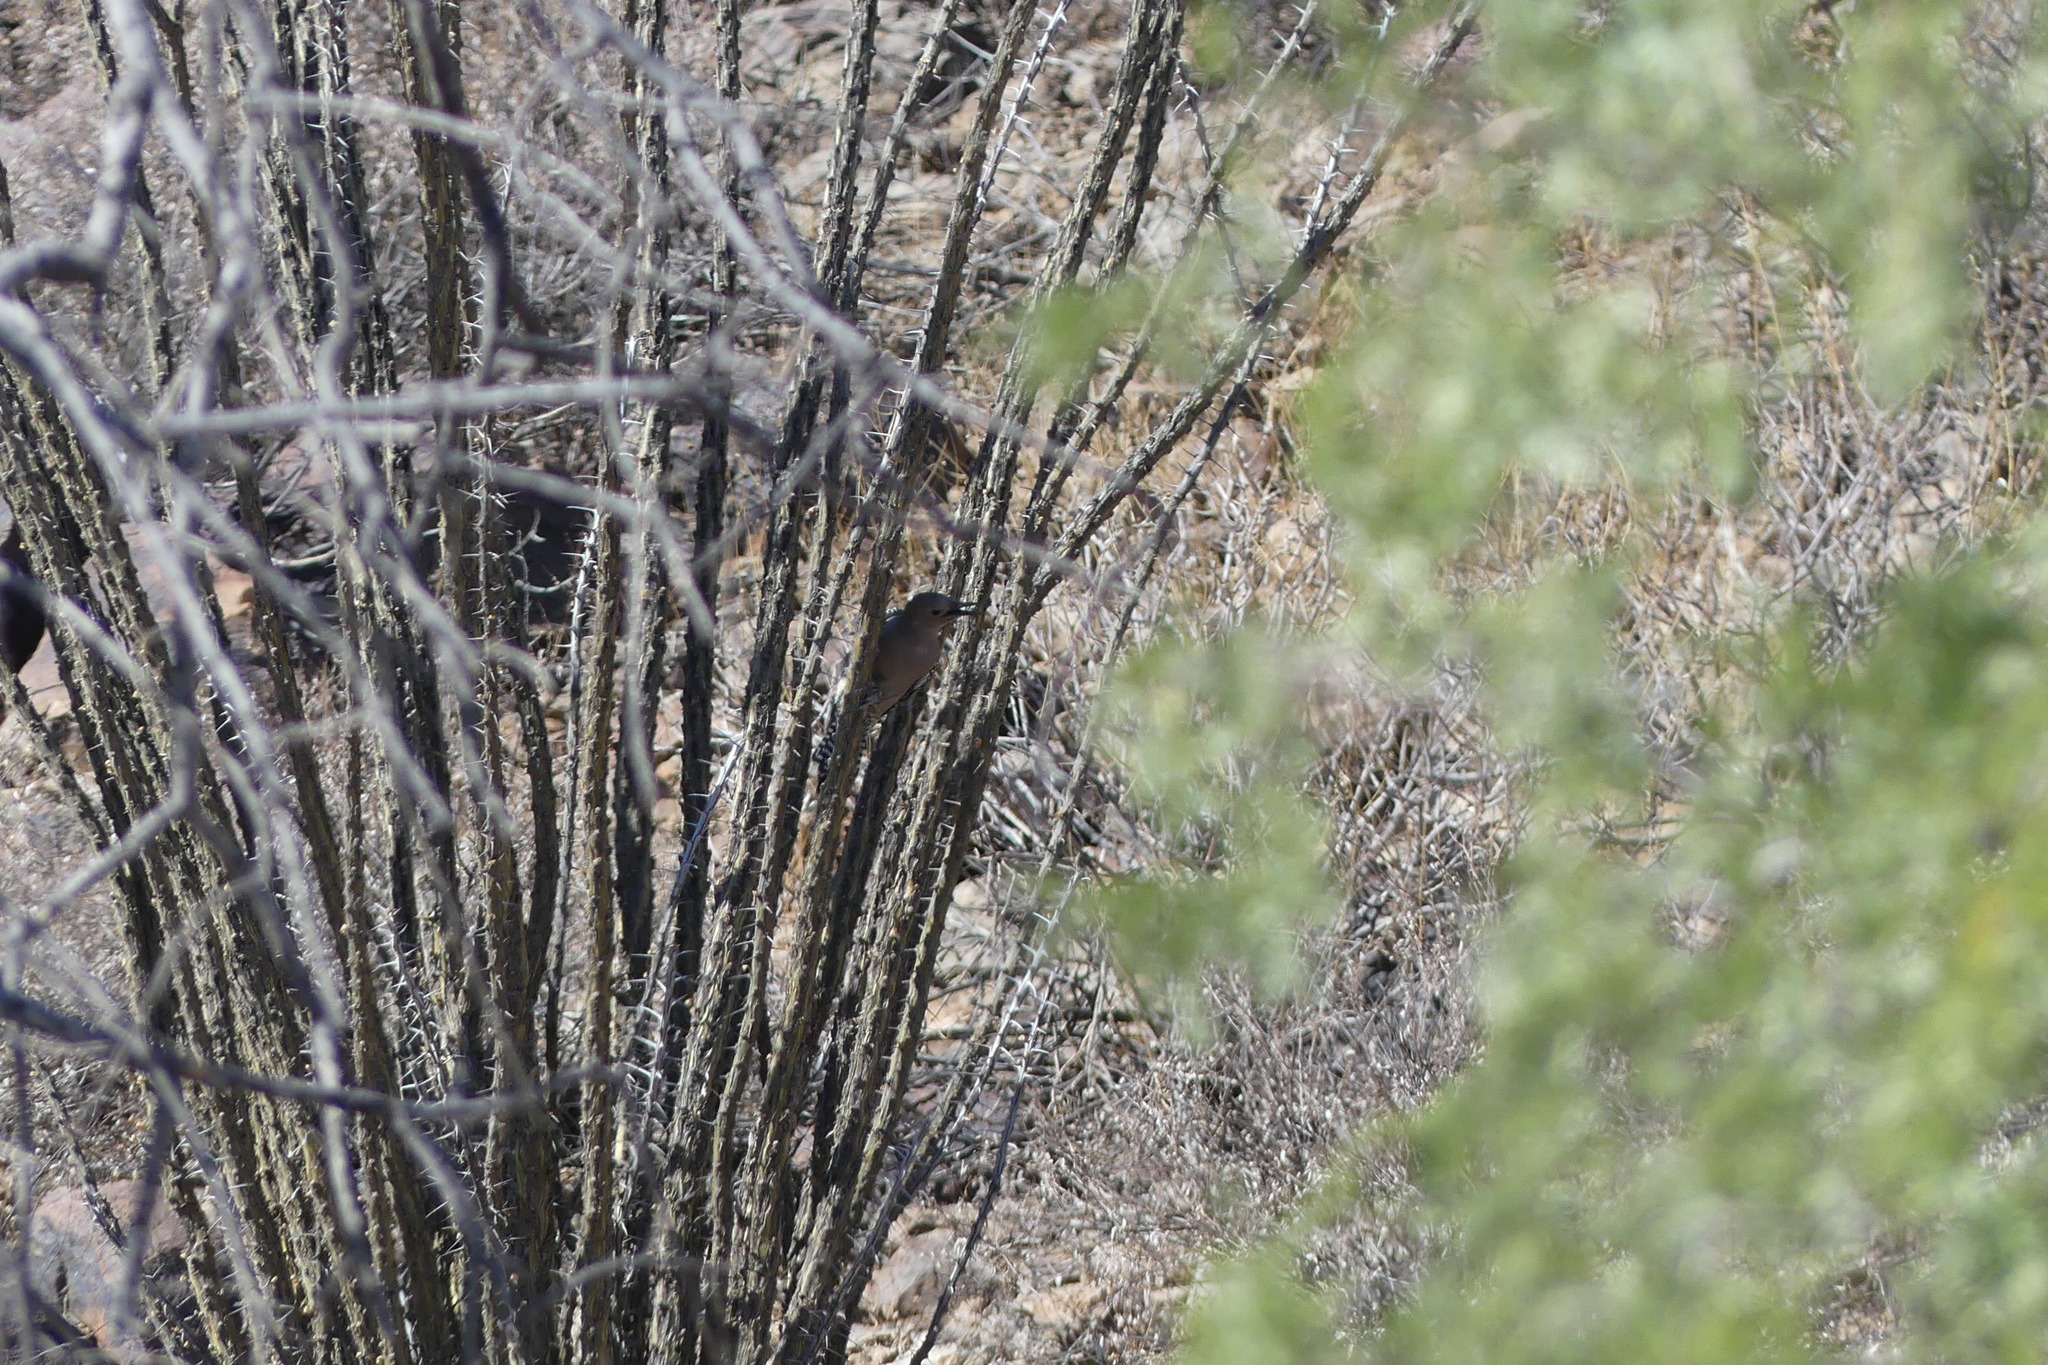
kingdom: Animalia
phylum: Chordata
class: Aves
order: Piciformes
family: Picidae
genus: Melanerpes
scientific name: Melanerpes uropygialis
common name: Gila woodpecker
